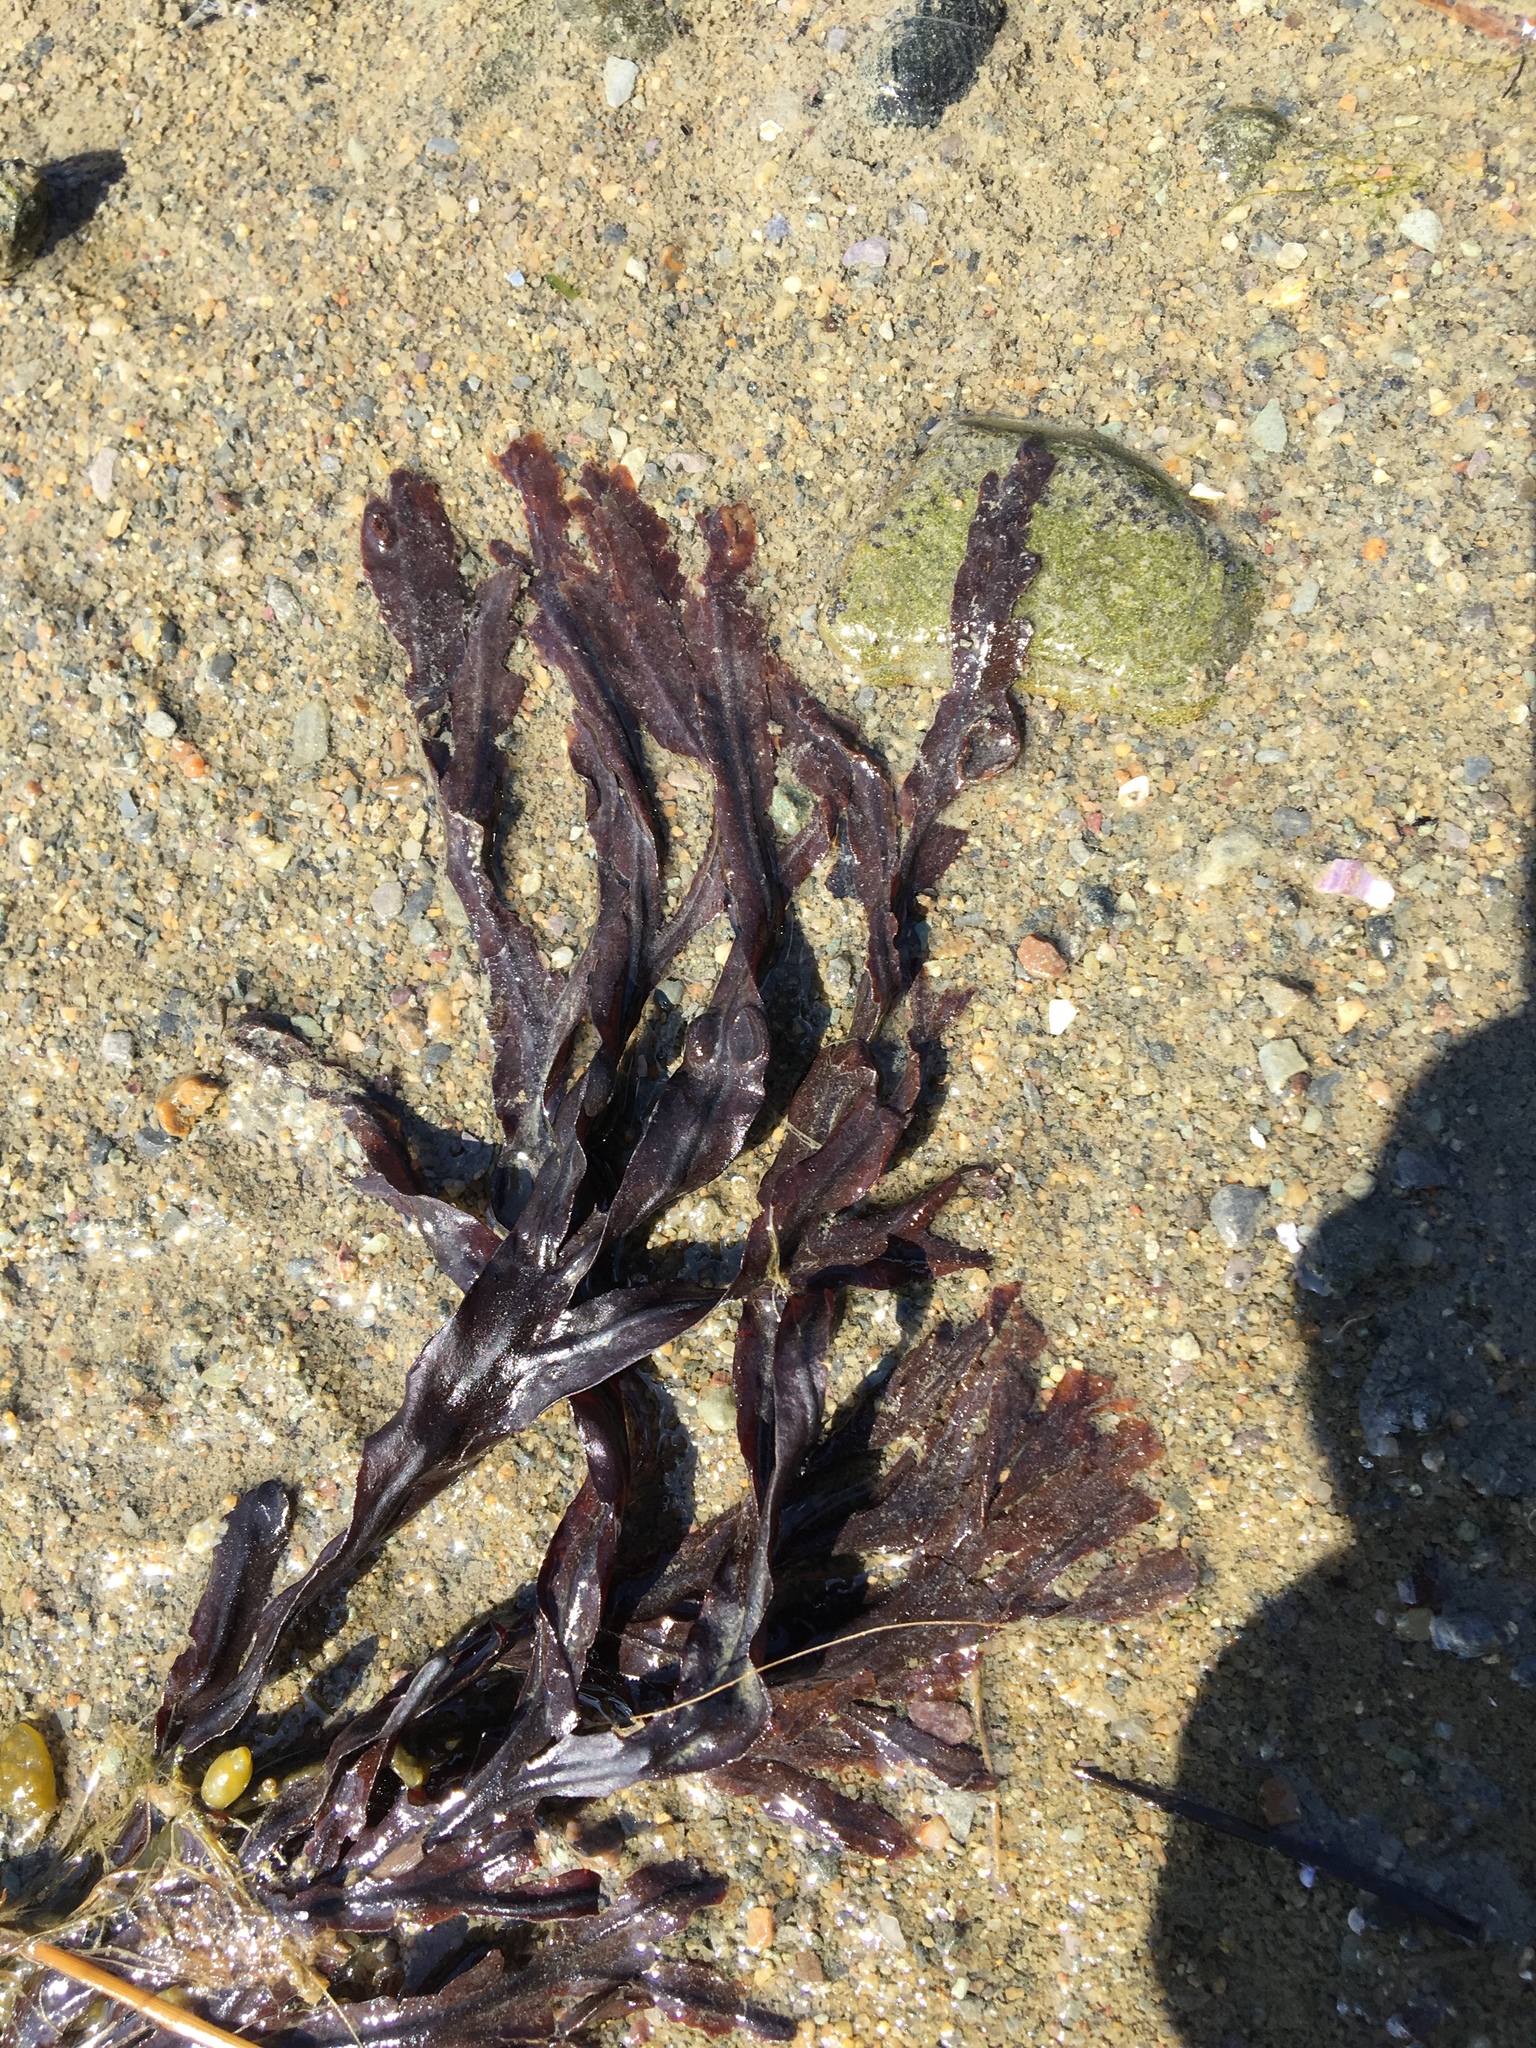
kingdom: Chromista
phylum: Ochrophyta
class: Phaeophyceae
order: Fucales
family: Fucaceae
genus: Fucus
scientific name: Fucus vesiculosus
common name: Bladder wrack
